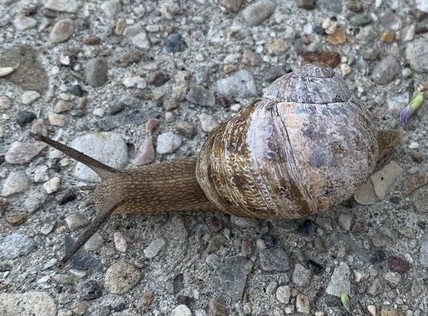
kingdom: Animalia
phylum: Mollusca
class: Gastropoda
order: Stylommatophora
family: Helicidae
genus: Cornu
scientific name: Cornu aspersum
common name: Brown garden snail
